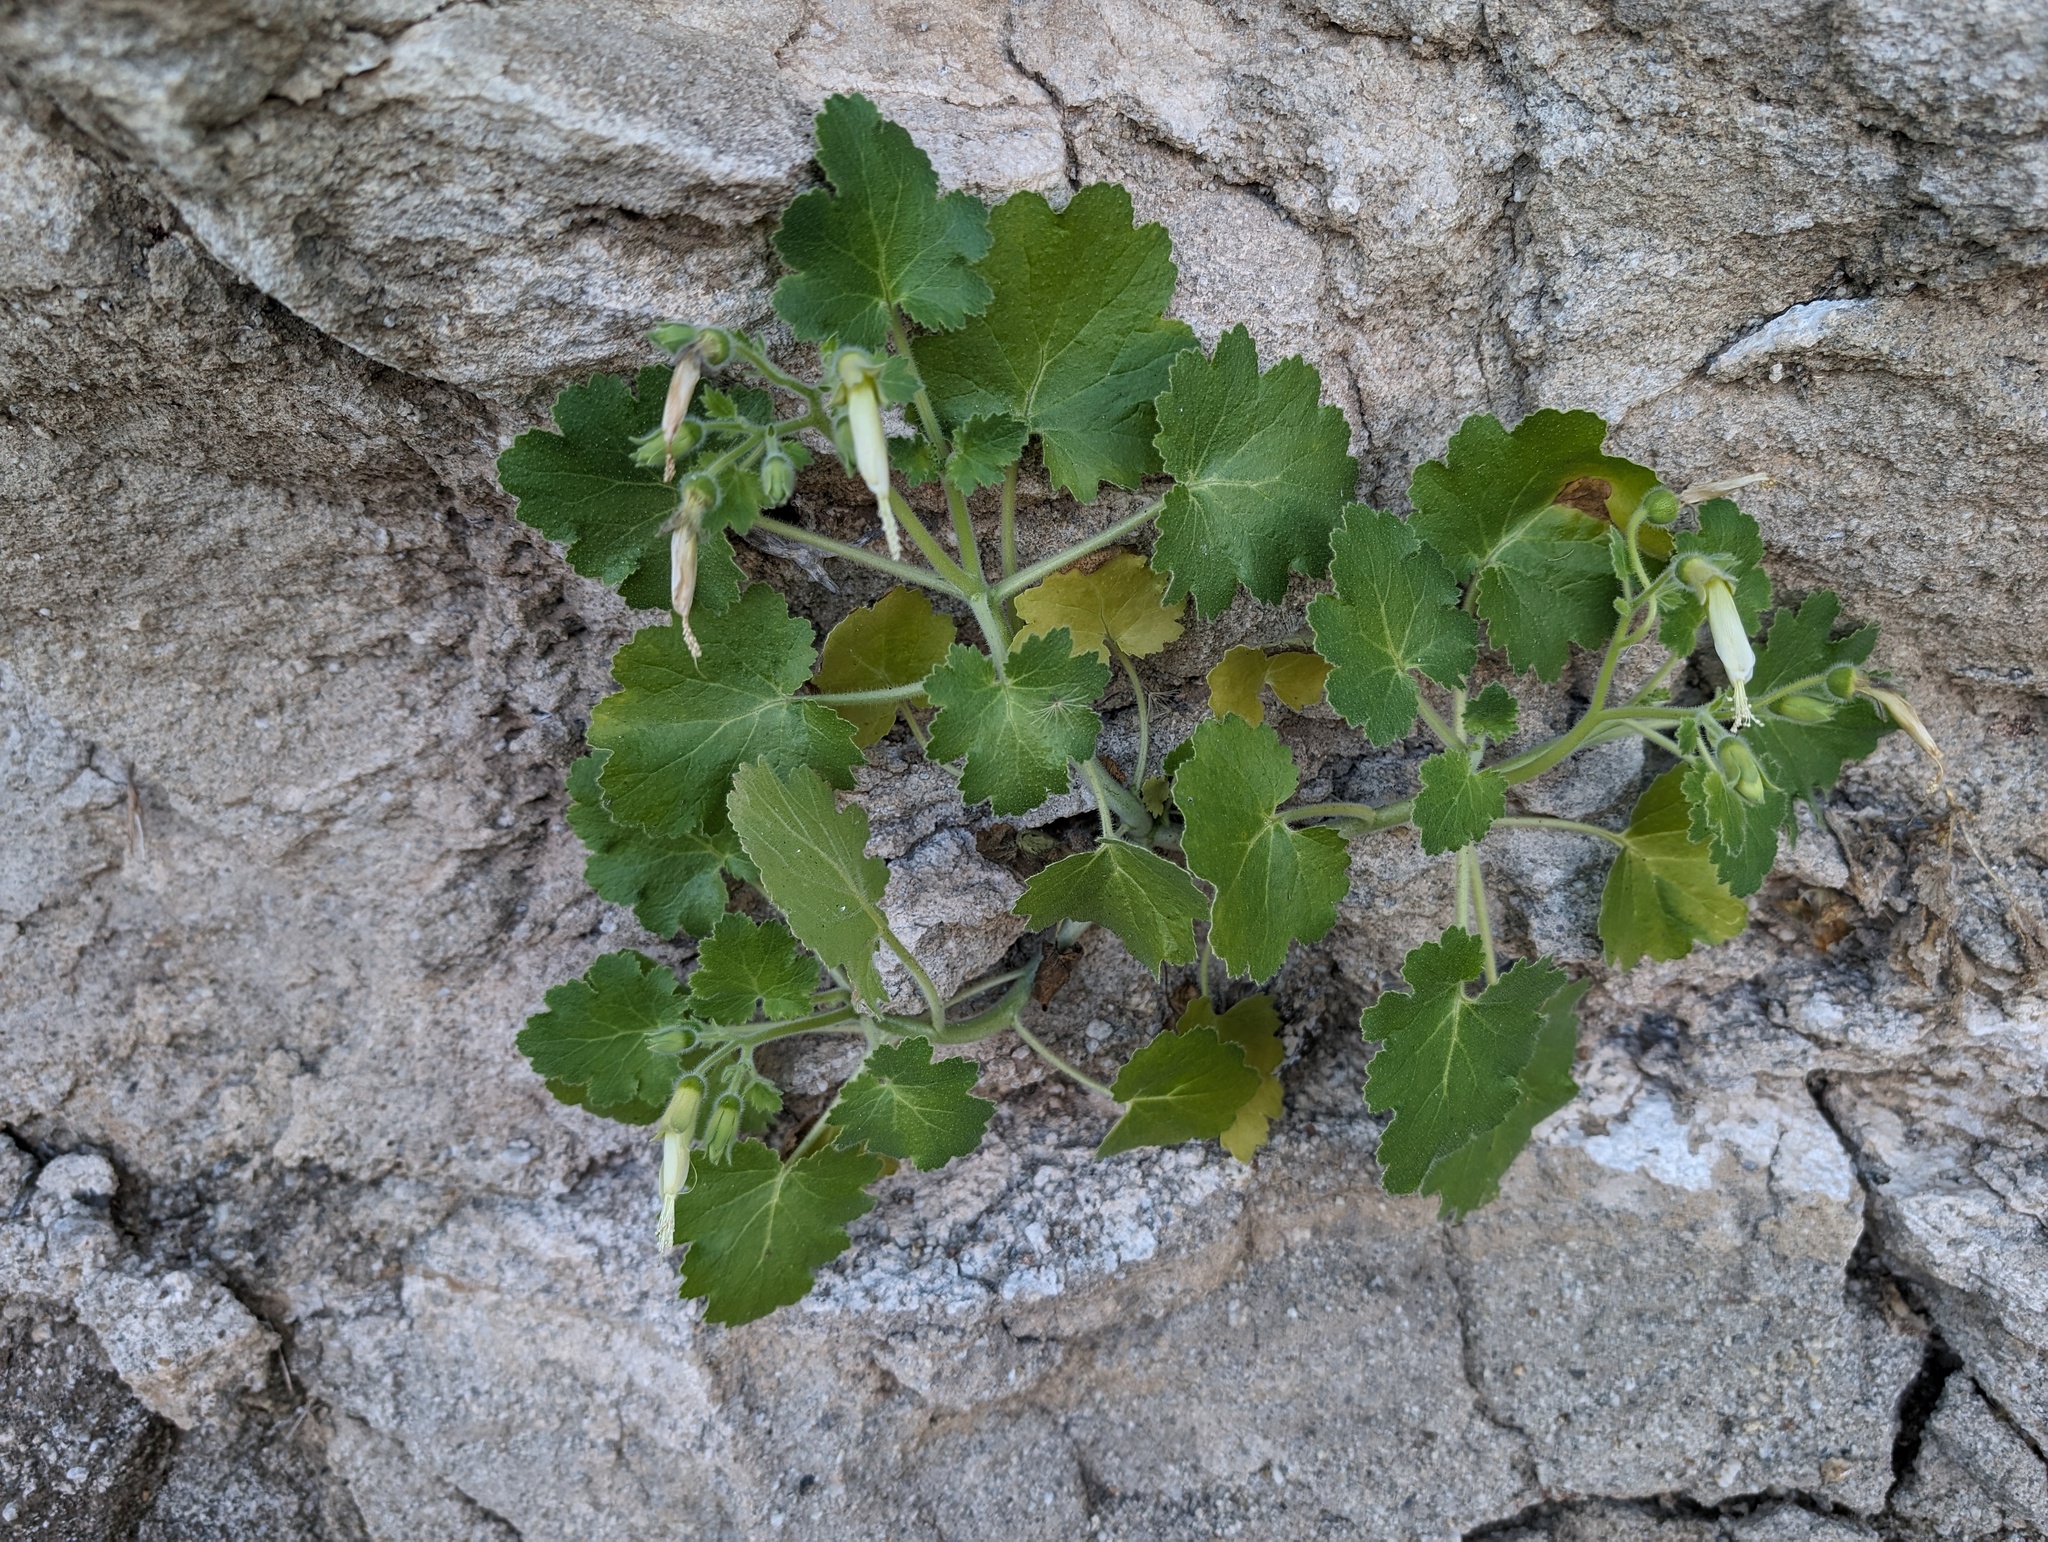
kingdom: Plantae
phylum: Tracheophyta
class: Magnoliopsida
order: Cornales
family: Loasaceae
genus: Eucnide
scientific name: Eucnide cordata
